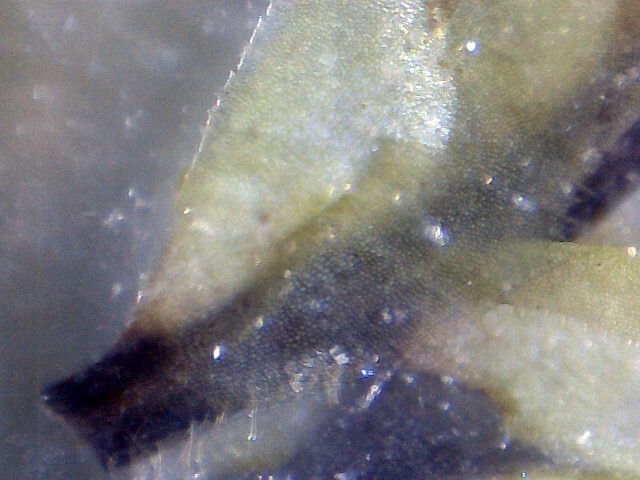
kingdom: Plantae
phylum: Marchantiophyta
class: Jungermanniopsida
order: Jungermanniales
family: Scapaniaceae
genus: Scapania
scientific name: Scapania nemorea
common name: Grove earwort
